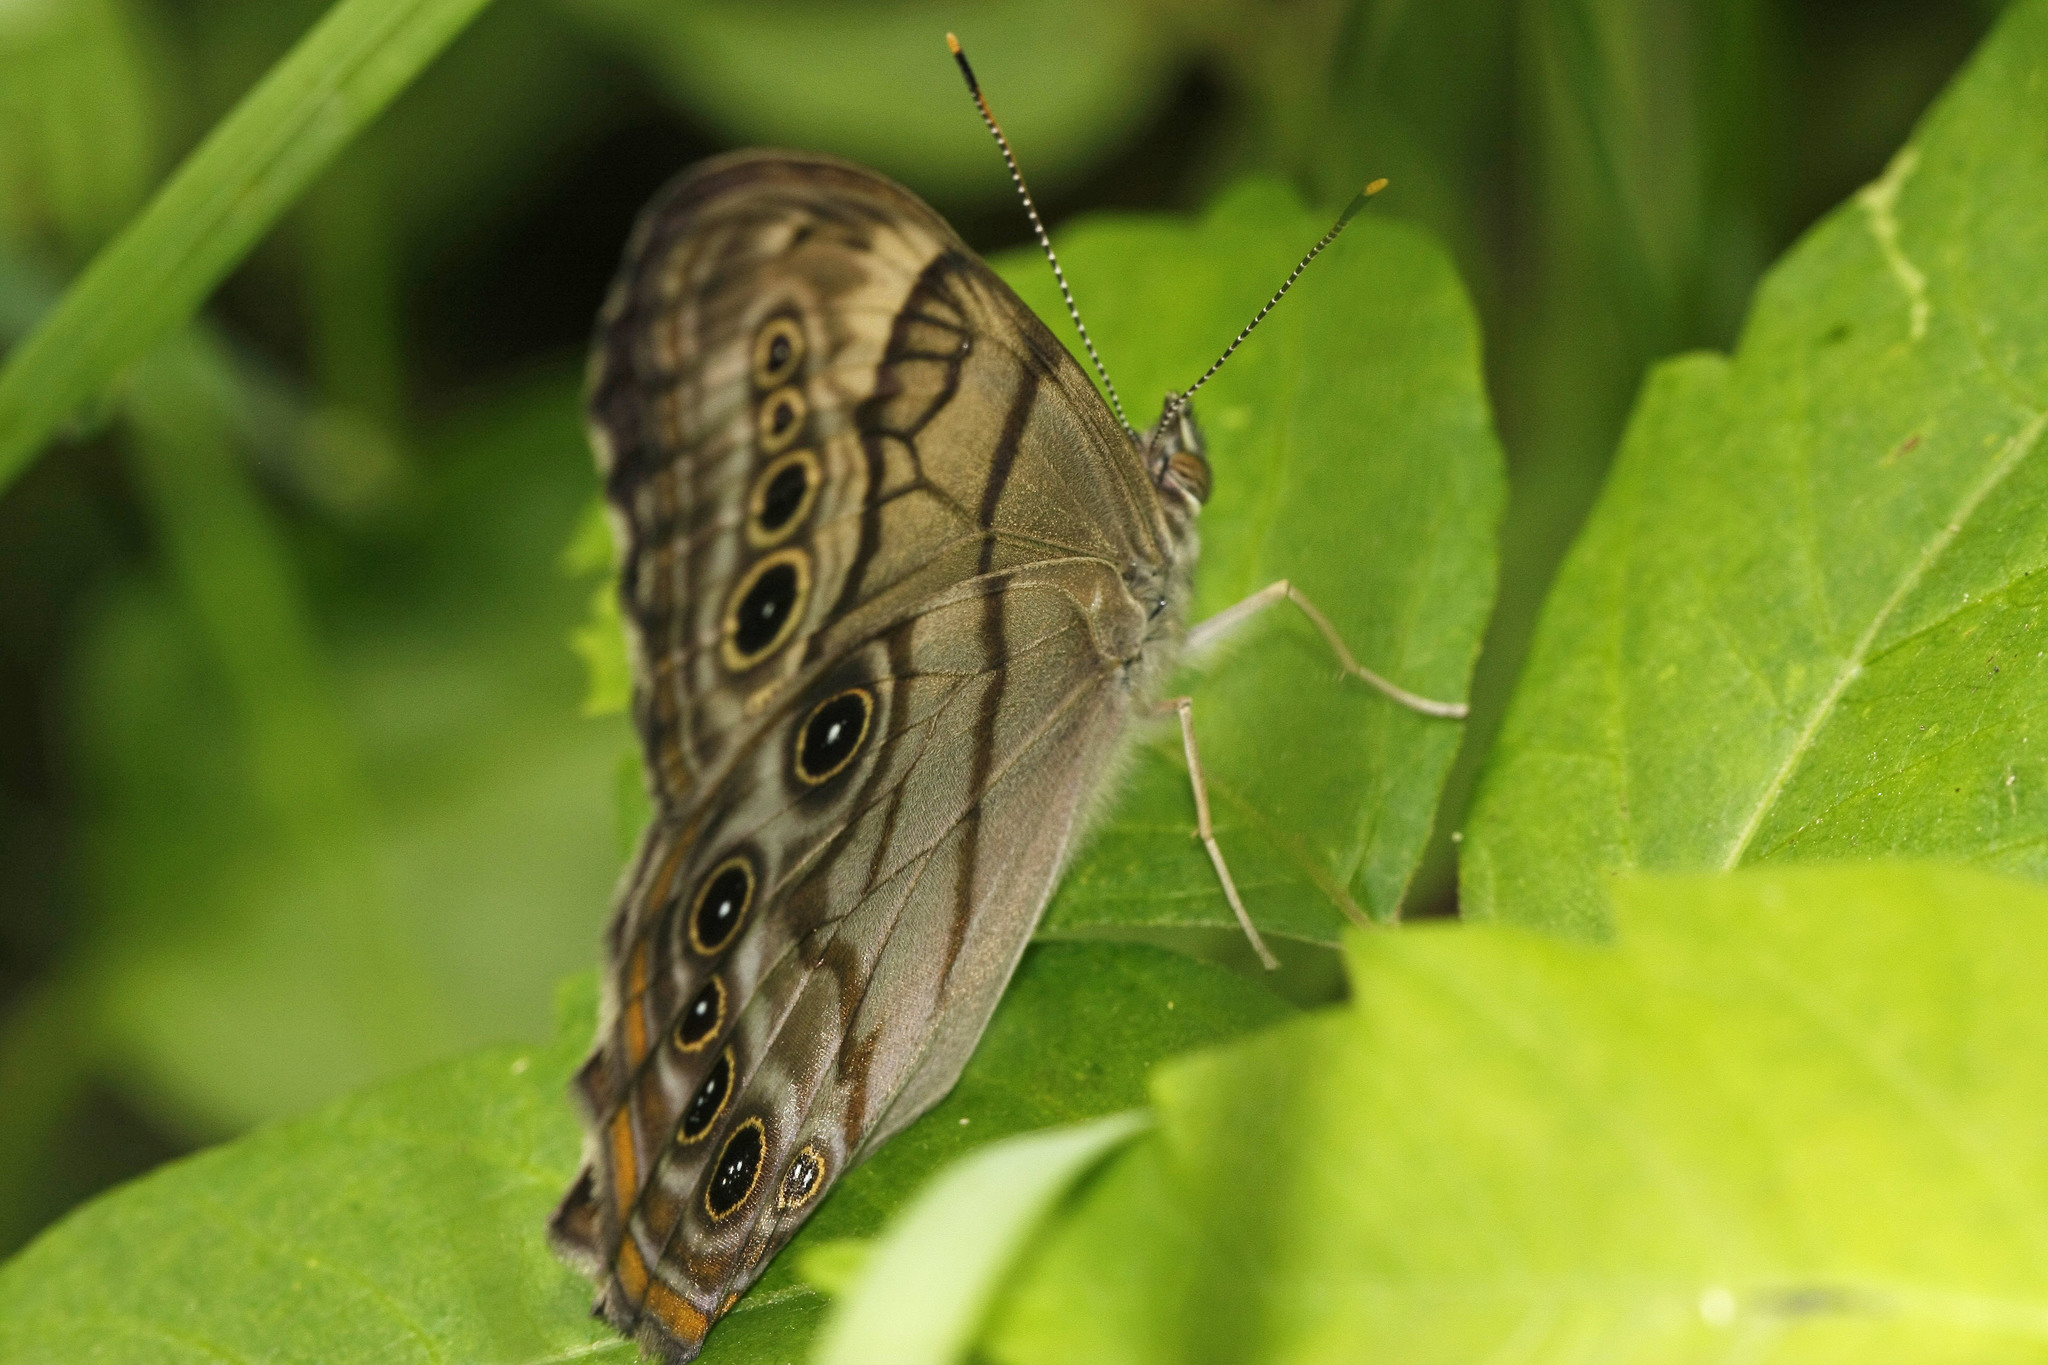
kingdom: Animalia
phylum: Arthropoda
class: Insecta
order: Lepidoptera
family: Nymphalidae
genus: Lethe
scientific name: Lethe anthedon
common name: Northern pearly-eye
